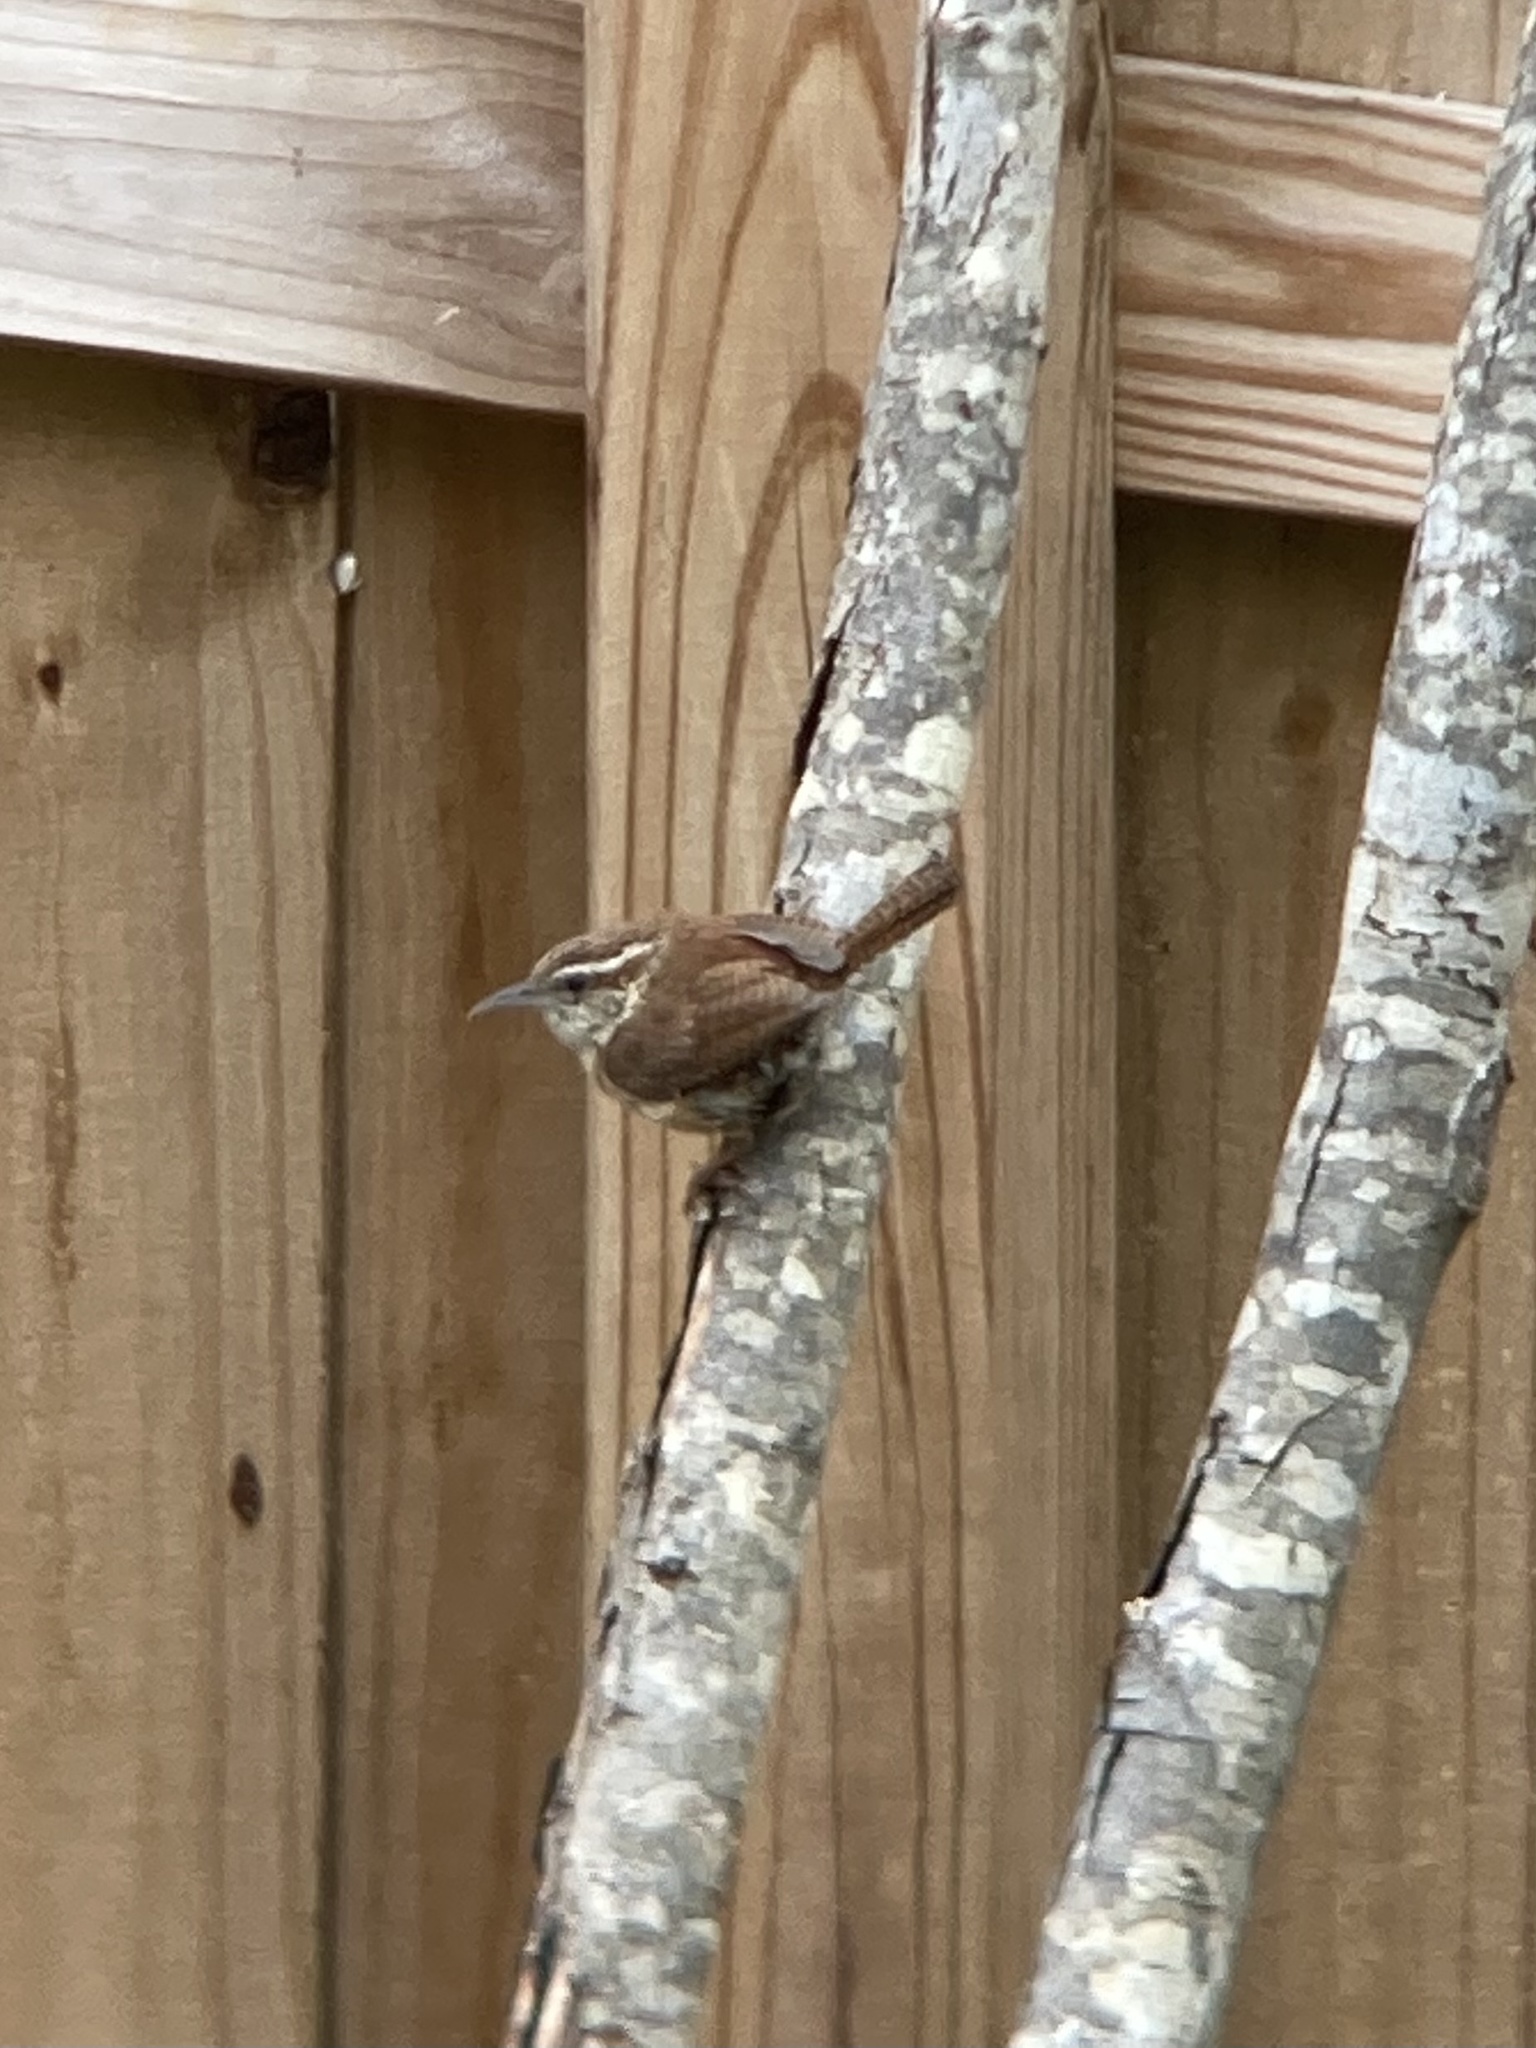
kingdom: Animalia
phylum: Chordata
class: Aves
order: Passeriformes
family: Troglodytidae
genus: Thryothorus
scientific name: Thryothorus ludovicianus
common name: Carolina wren
